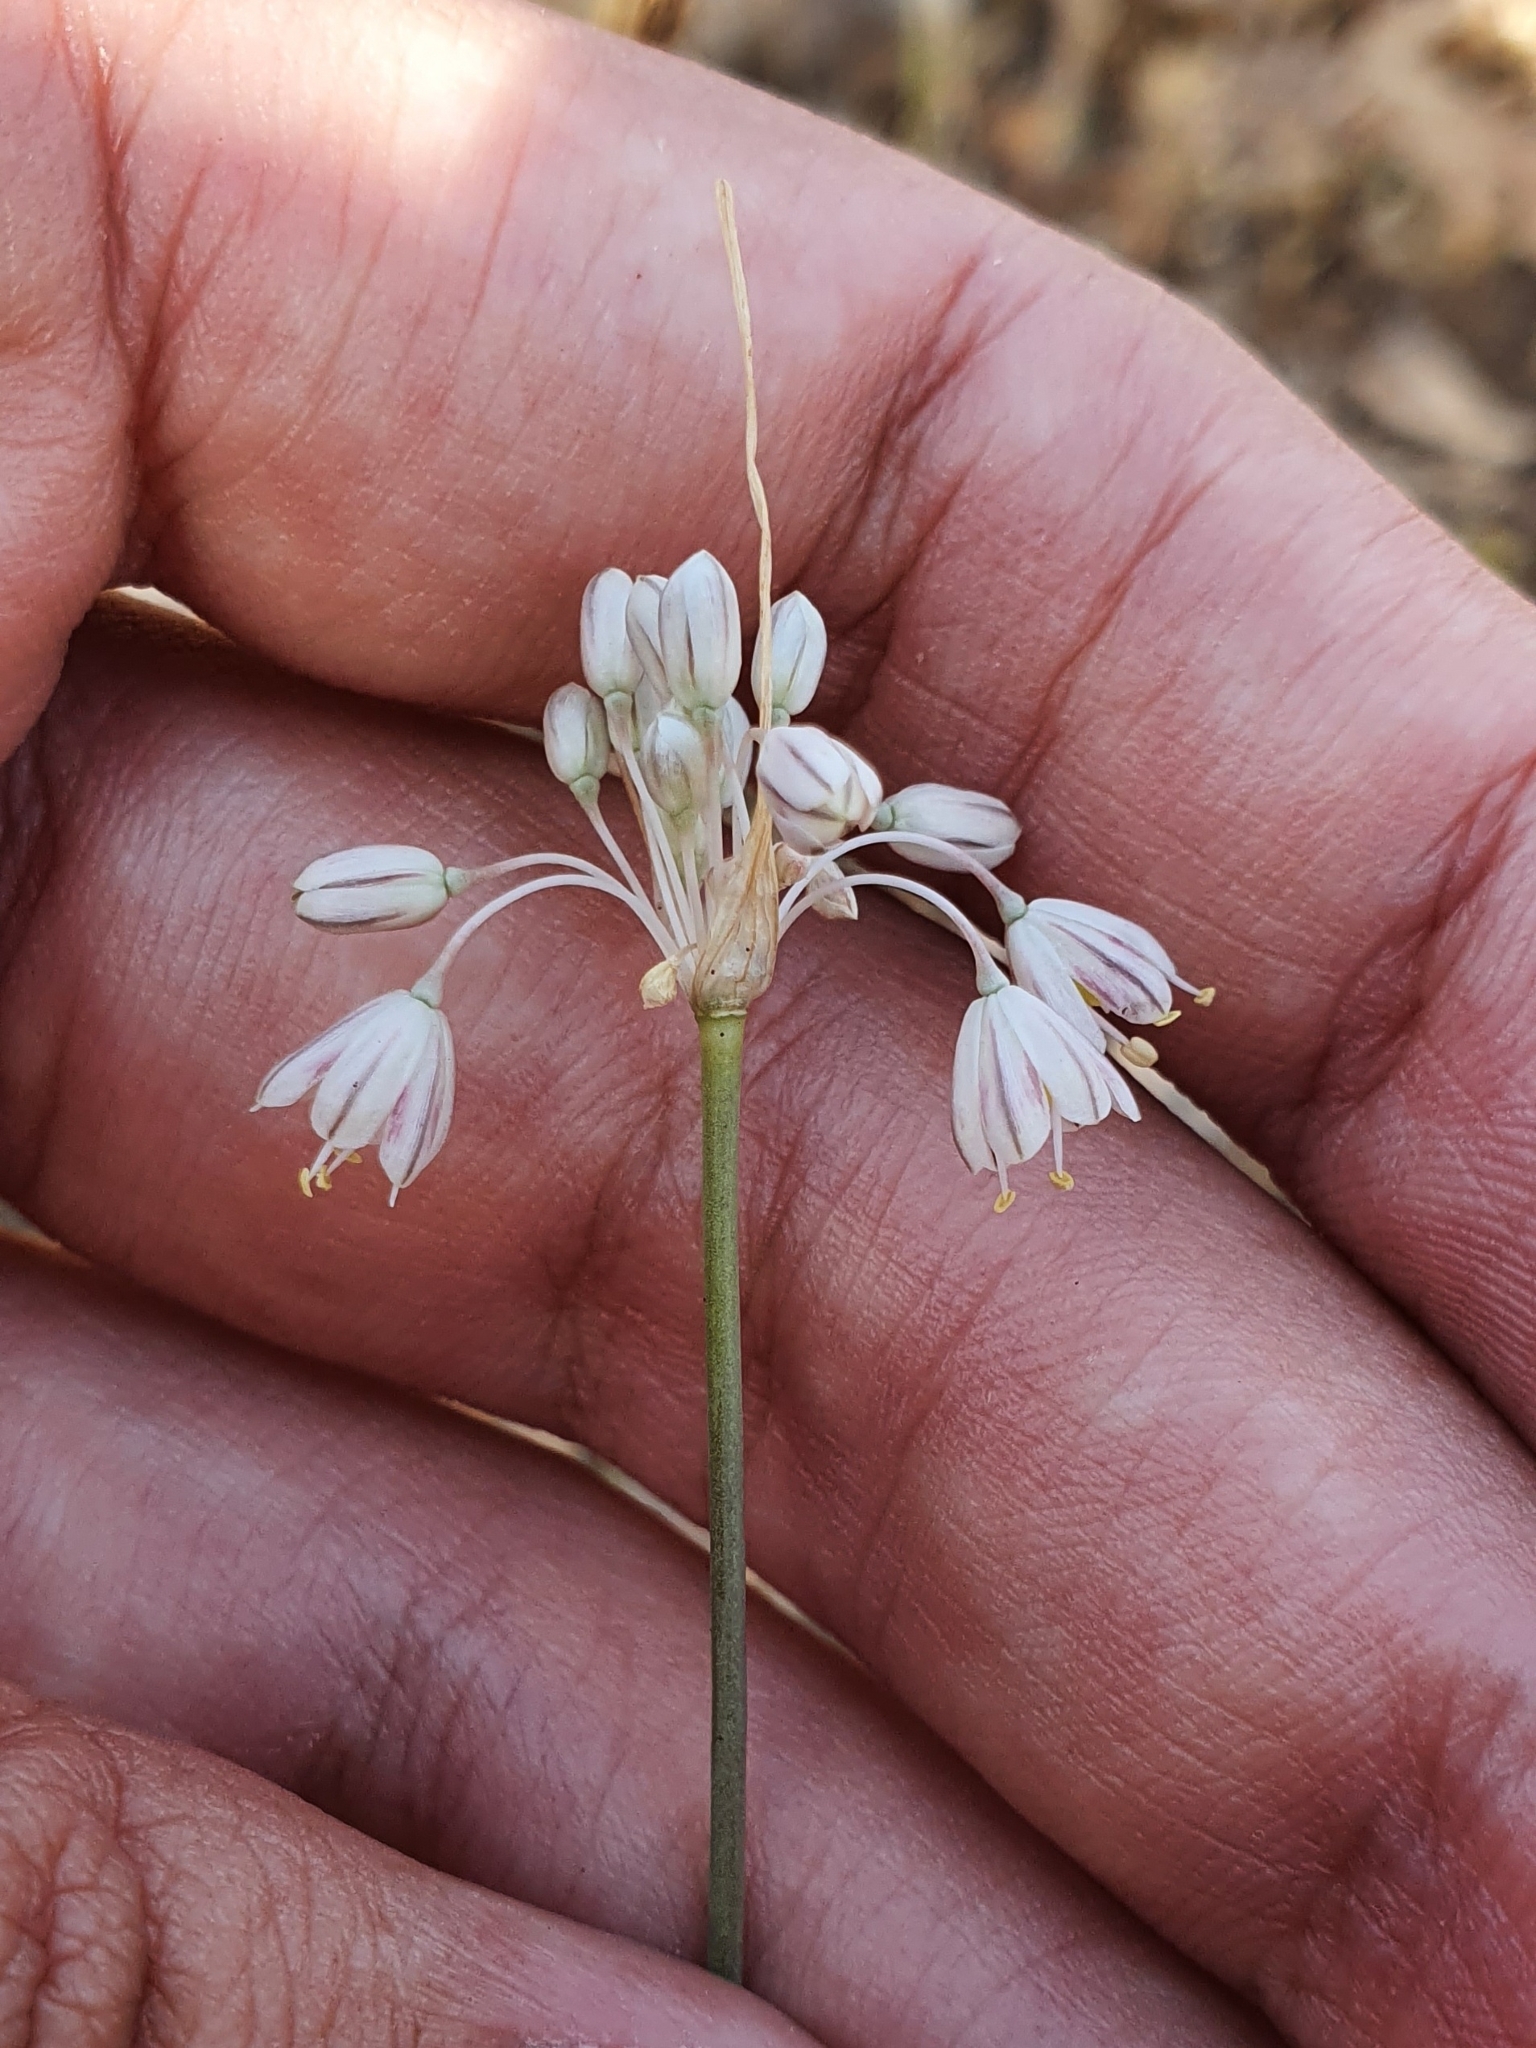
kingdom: Plantae
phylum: Tracheophyta
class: Liliopsida
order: Asparagales
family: Amaryllidaceae
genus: Allium
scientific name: Allium antiatlanticum
